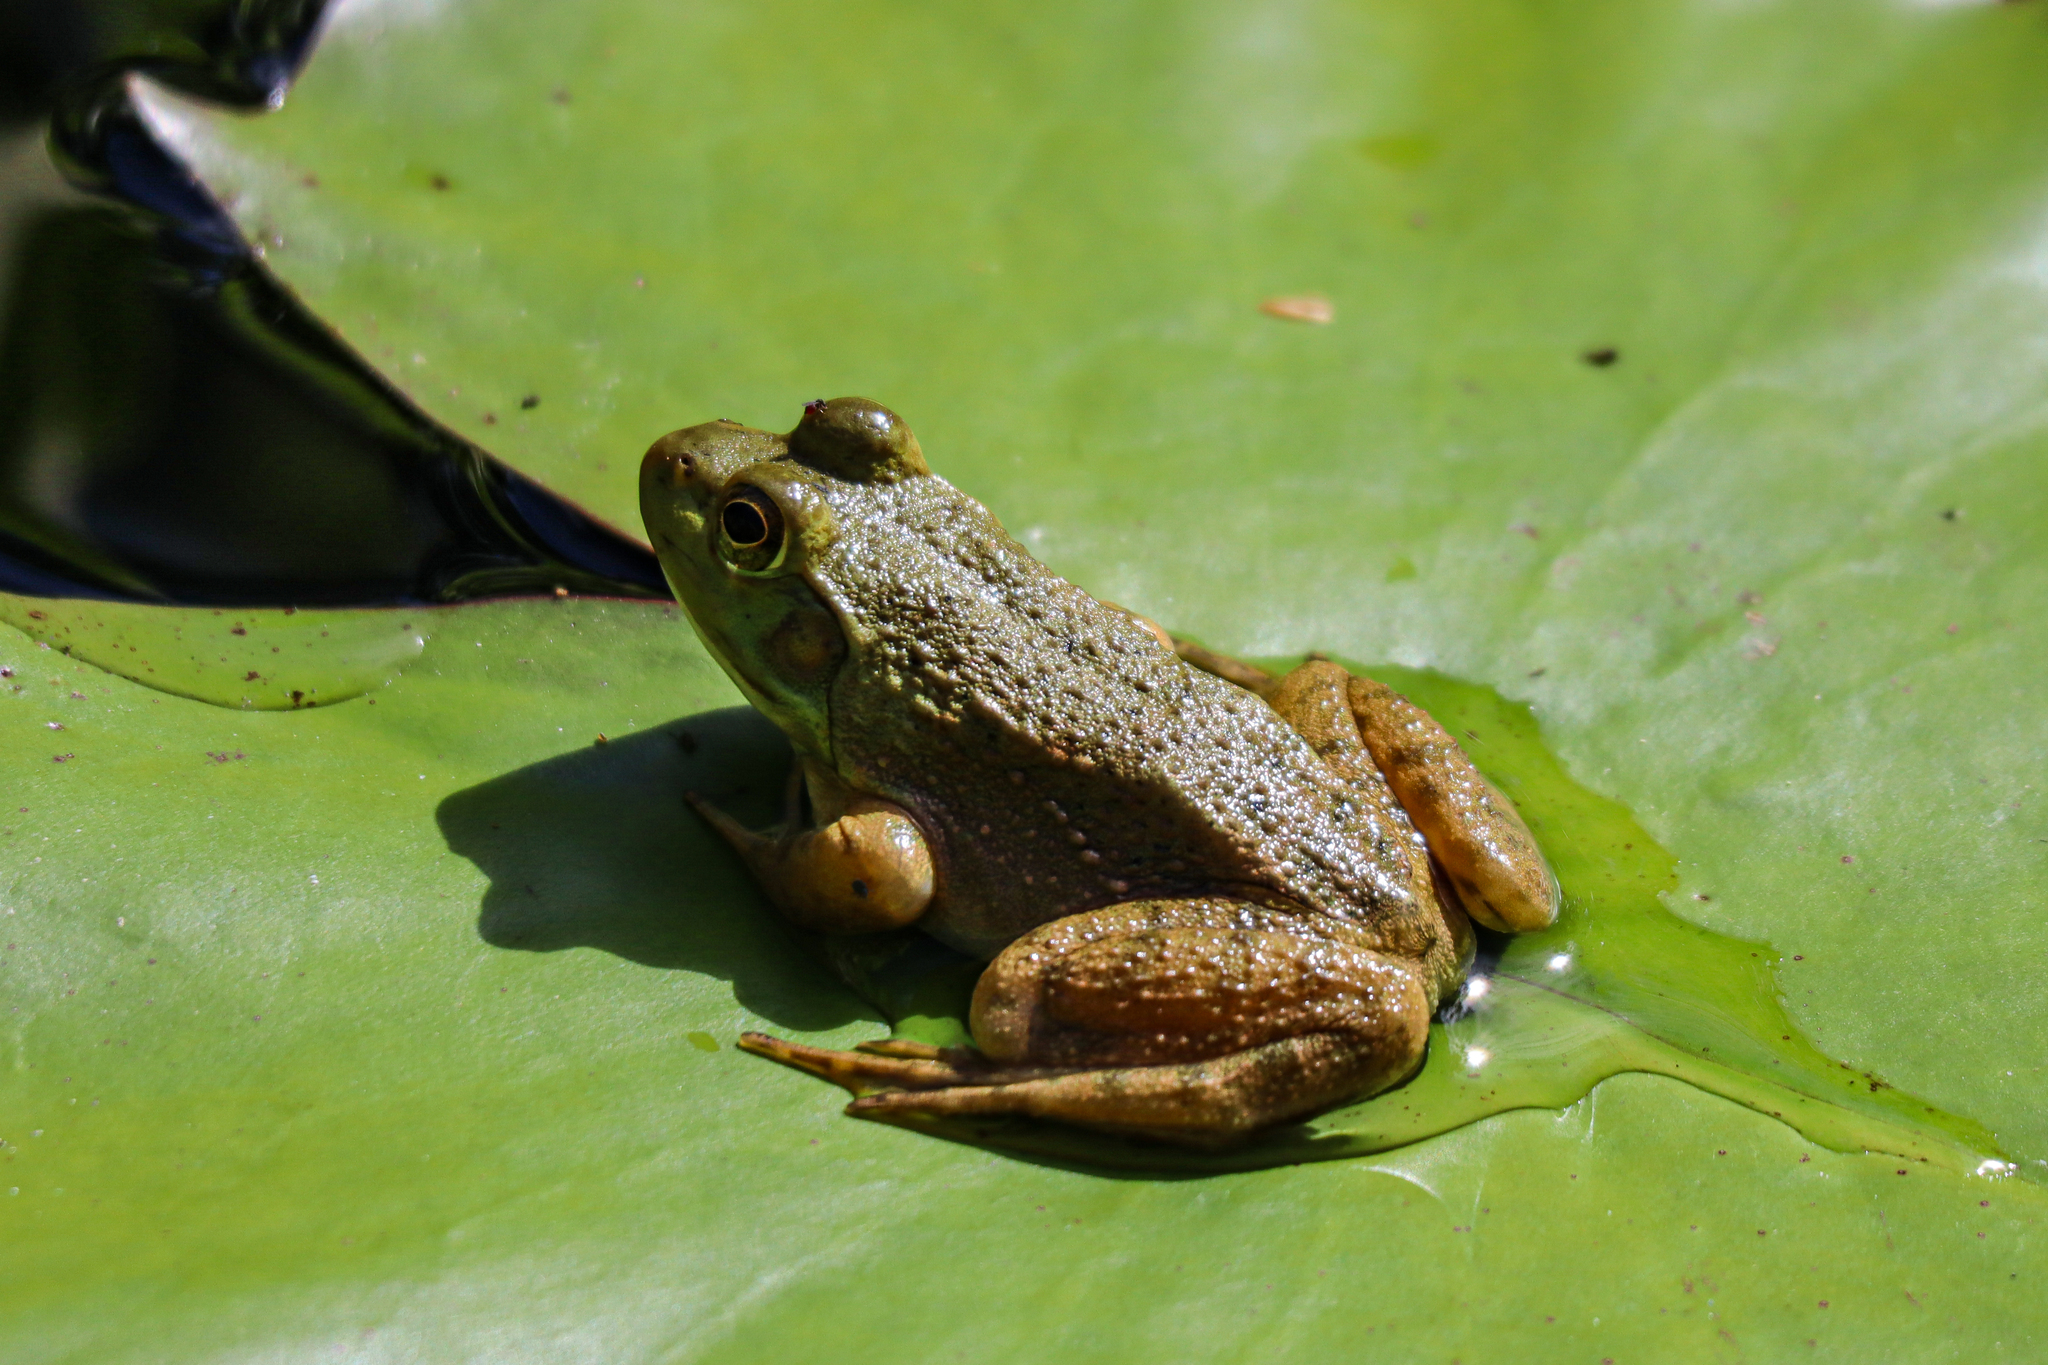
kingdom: Animalia
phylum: Chordata
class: Amphibia
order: Anura
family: Ranidae
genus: Lithobates
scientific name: Lithobates catesbeianus
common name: American bullfrog
